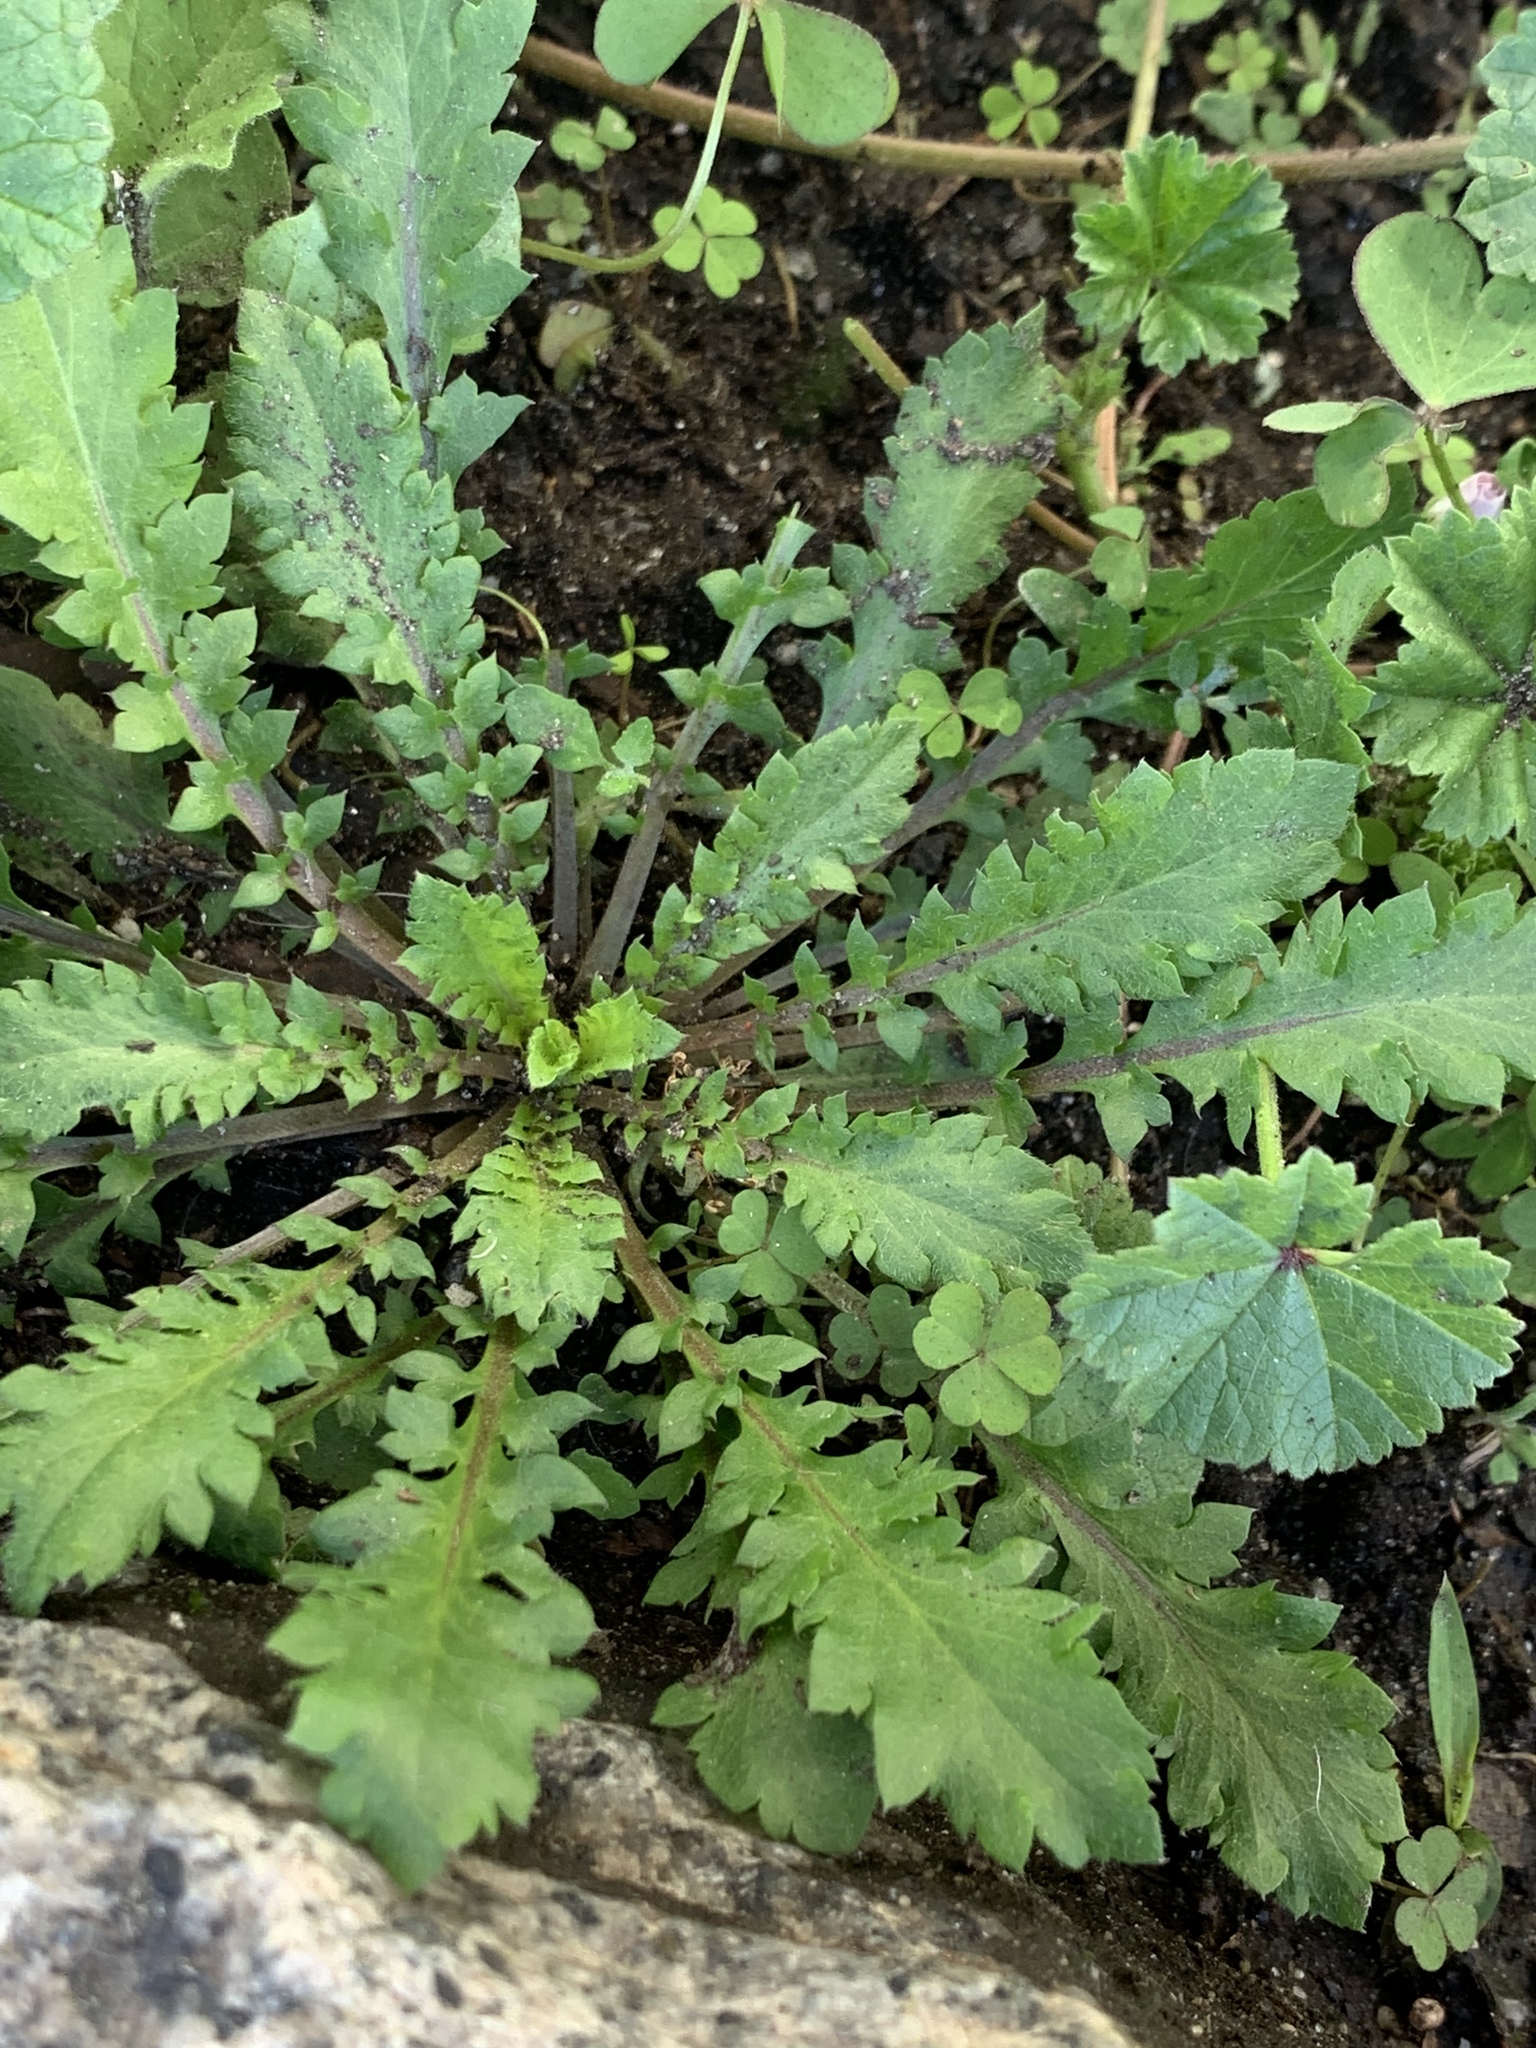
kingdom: Plantae
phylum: Tracheophyta
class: Magnoliopsida
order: Brassicales
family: Brassicaceae
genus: Capsella
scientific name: Capsella bursa-pastoris
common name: Shepherd's purse
